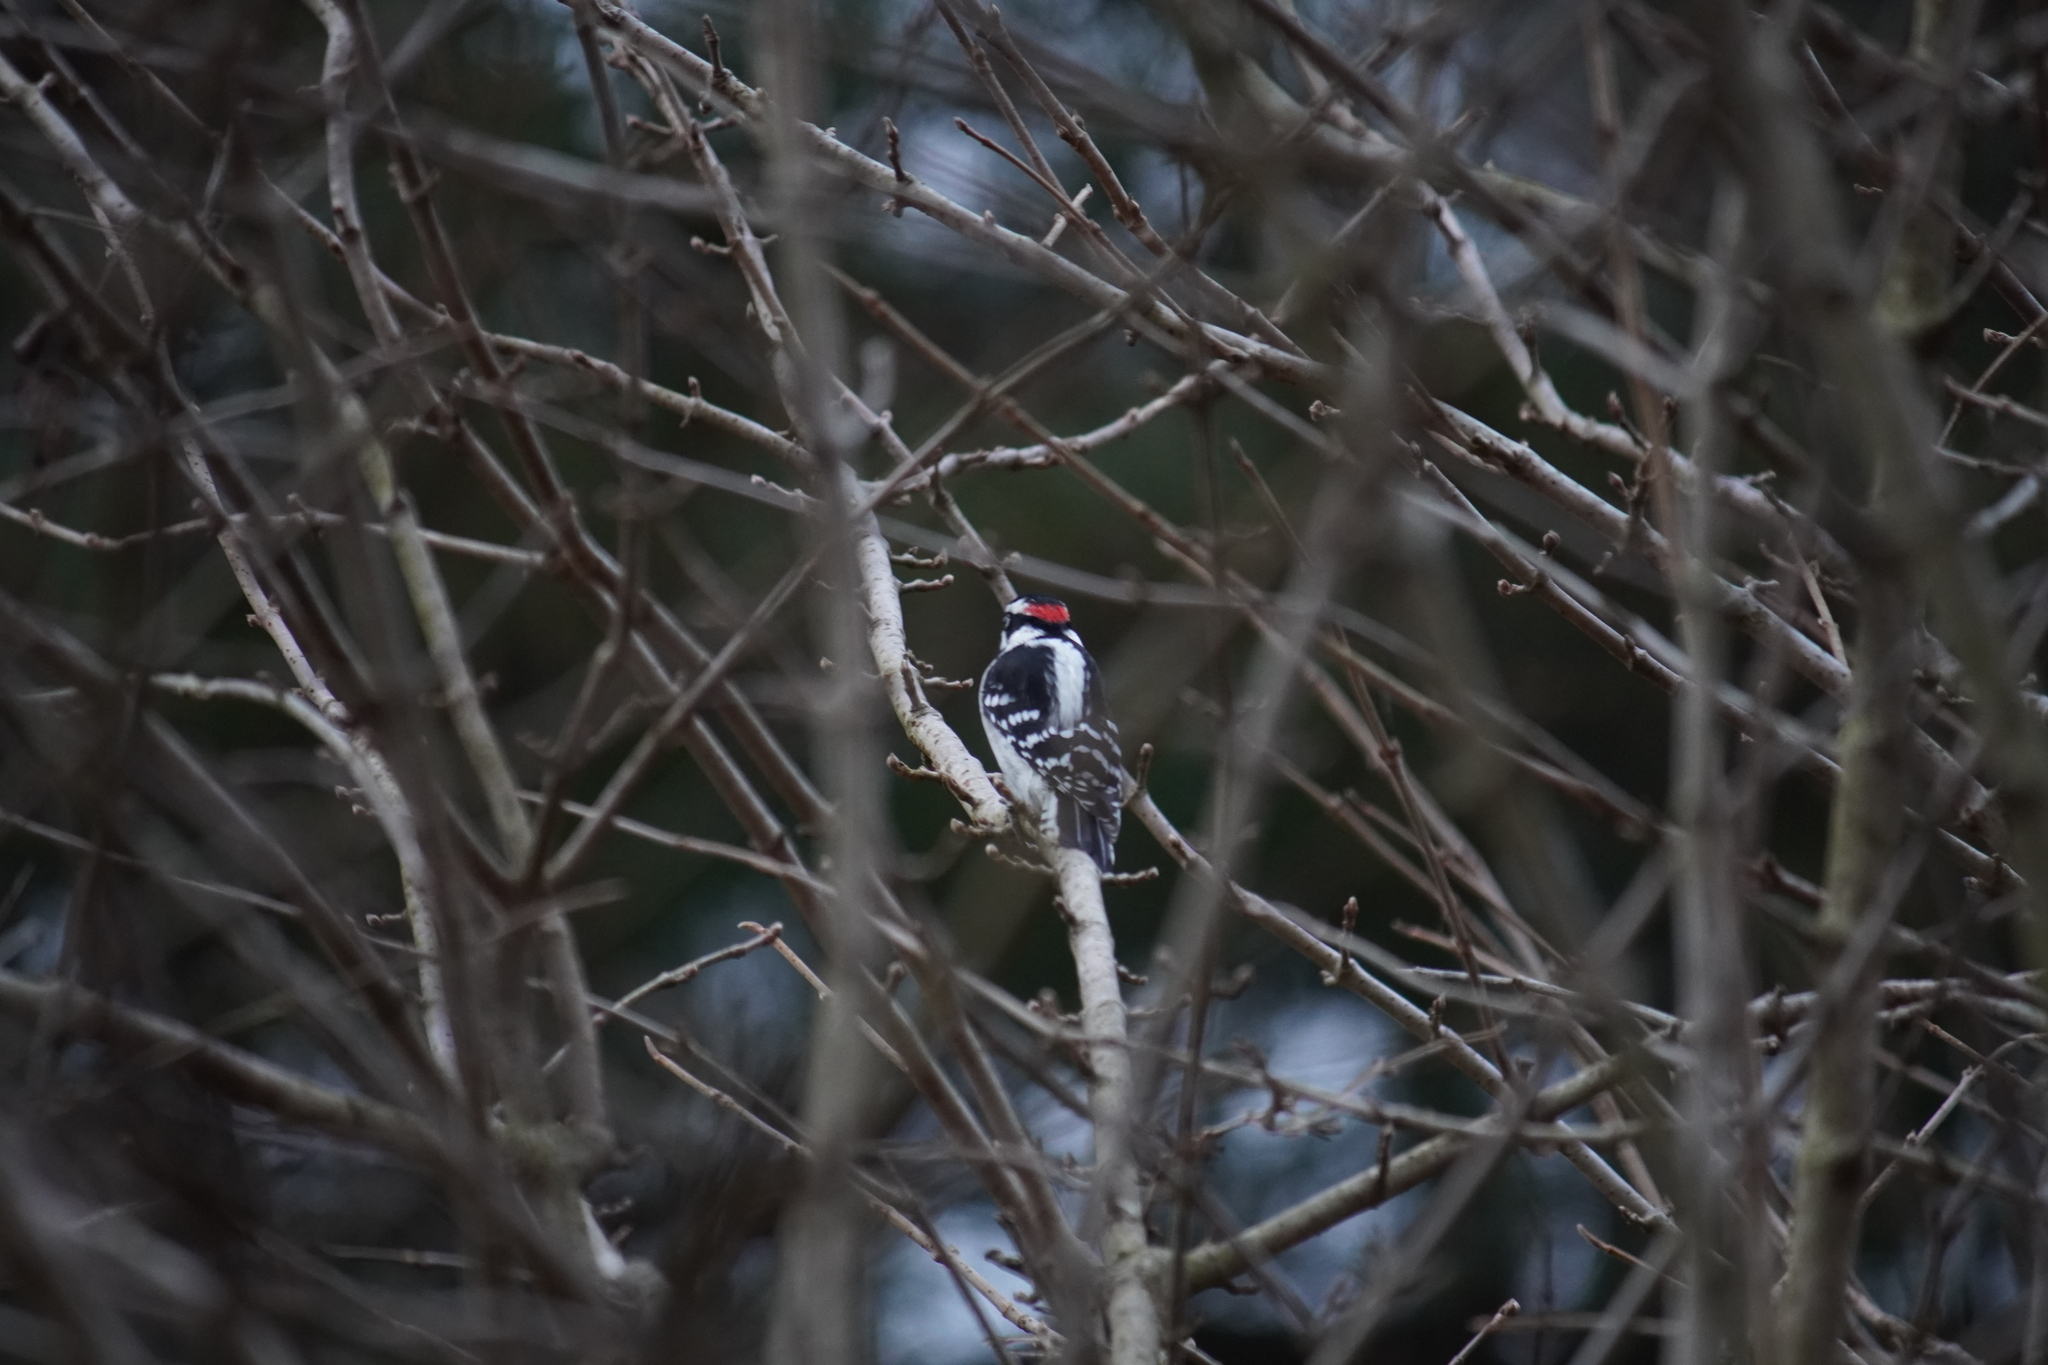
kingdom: Animalia
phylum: Chordata
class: Aves
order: Piciformes
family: Picidae
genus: Dryobates
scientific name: Dryobates pubescens
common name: Downy woodpecker
